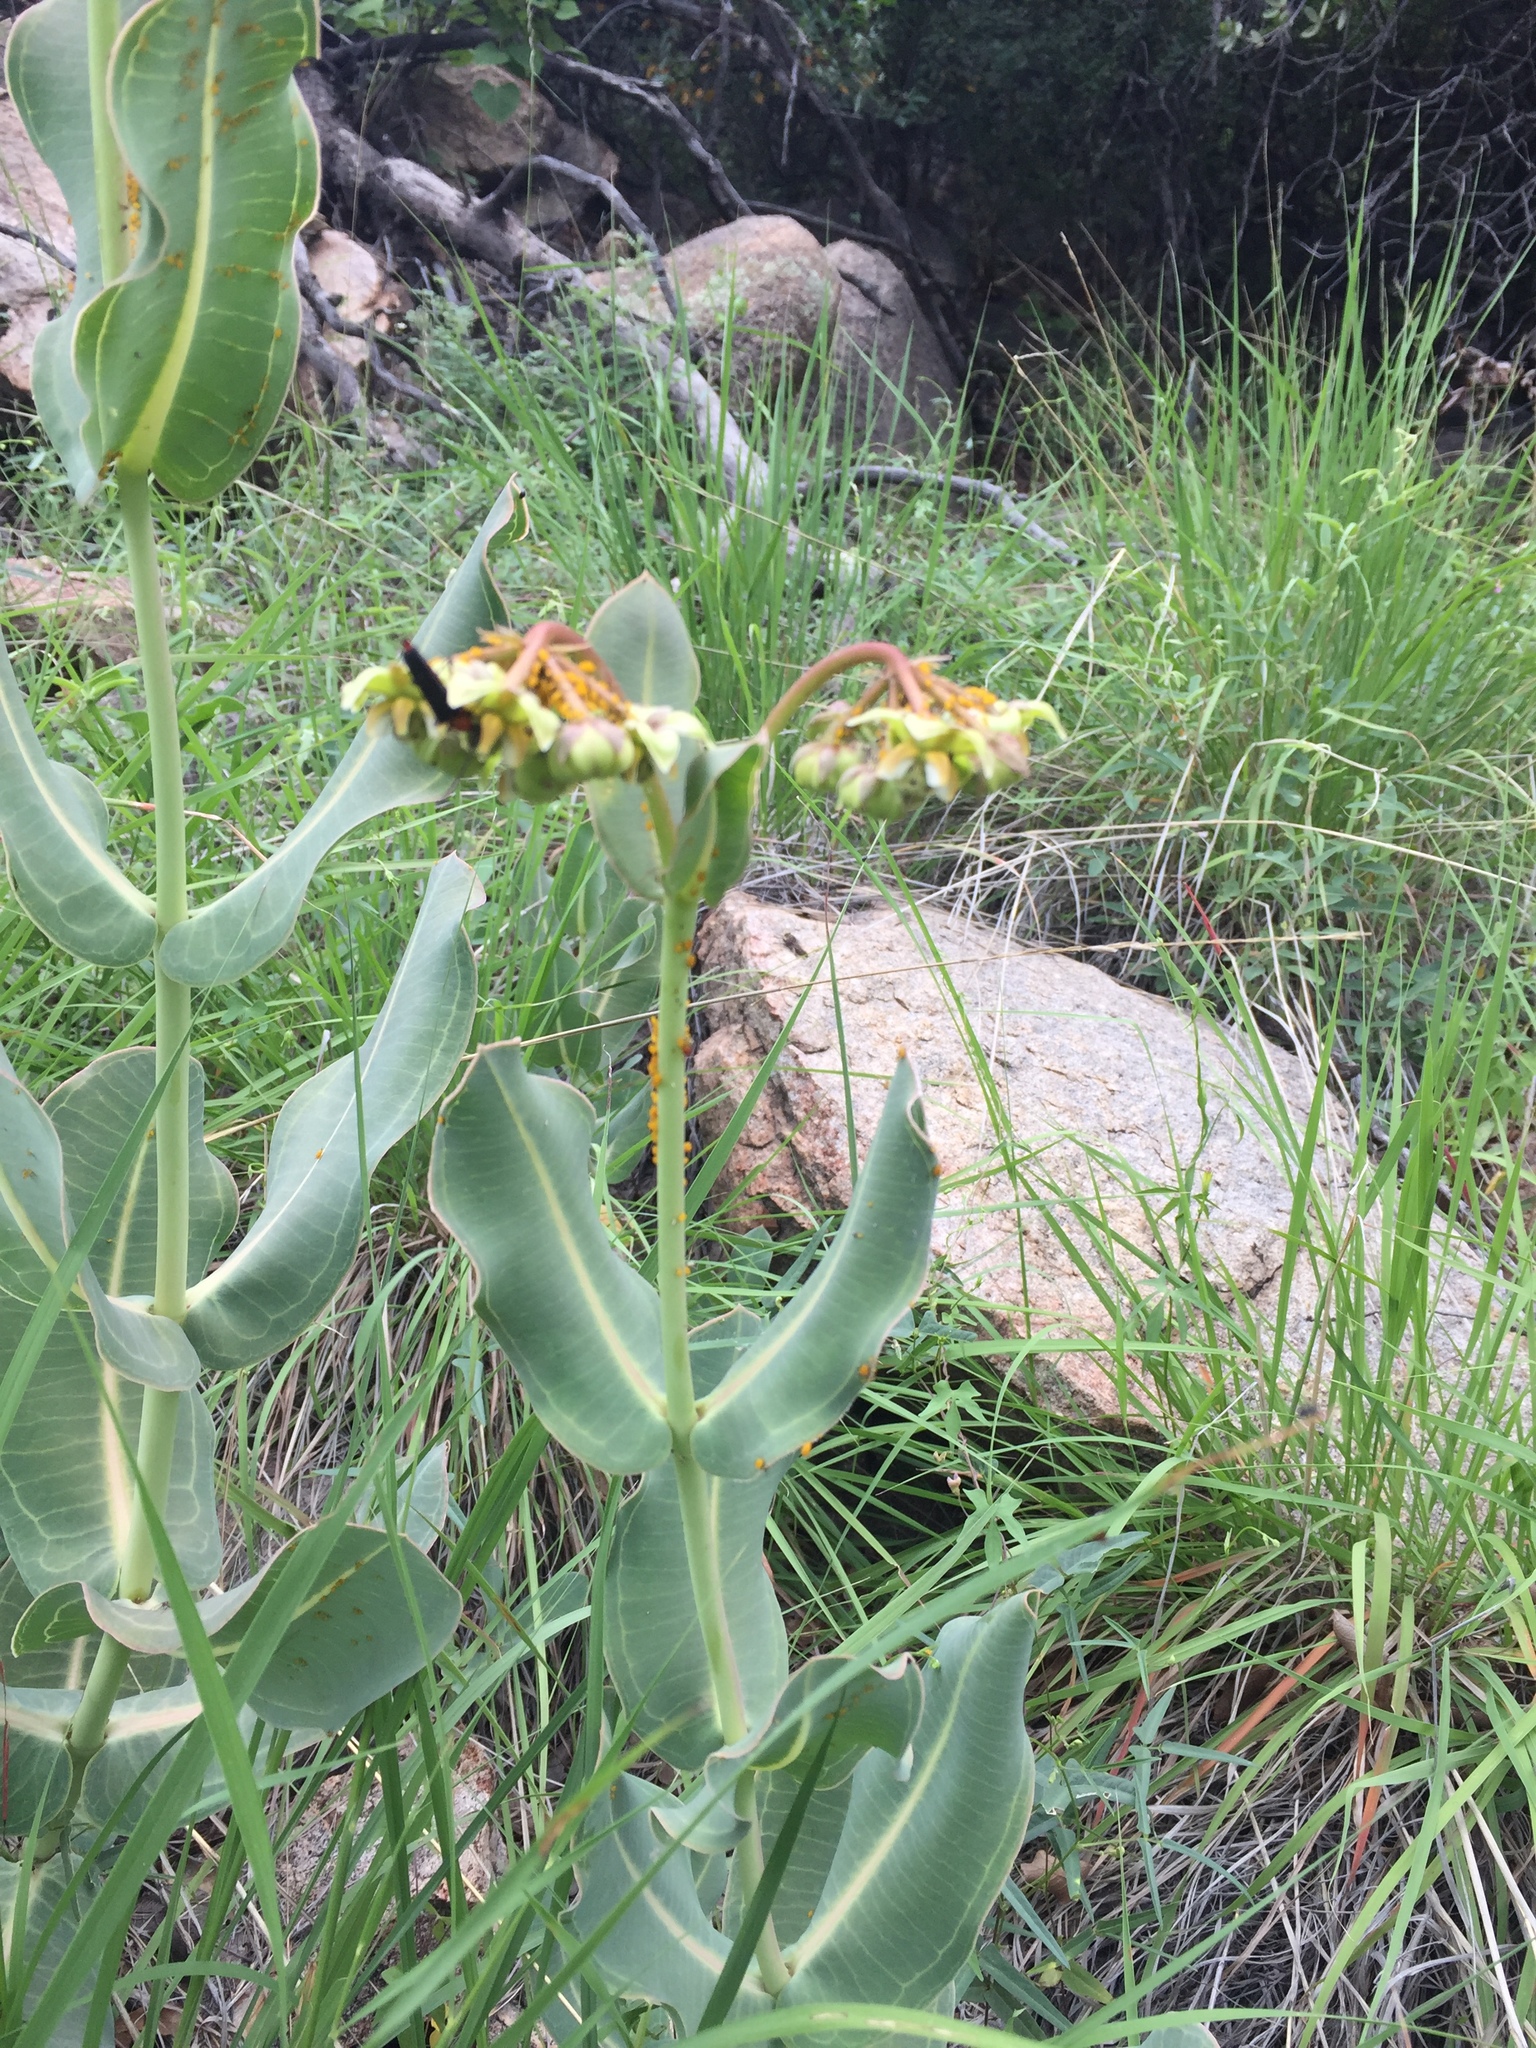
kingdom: Plantae
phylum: Tracheophyta
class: Magnoliopsida
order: Gentianales
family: Apocynaceae
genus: Asclepias
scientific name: Asclepias elata
